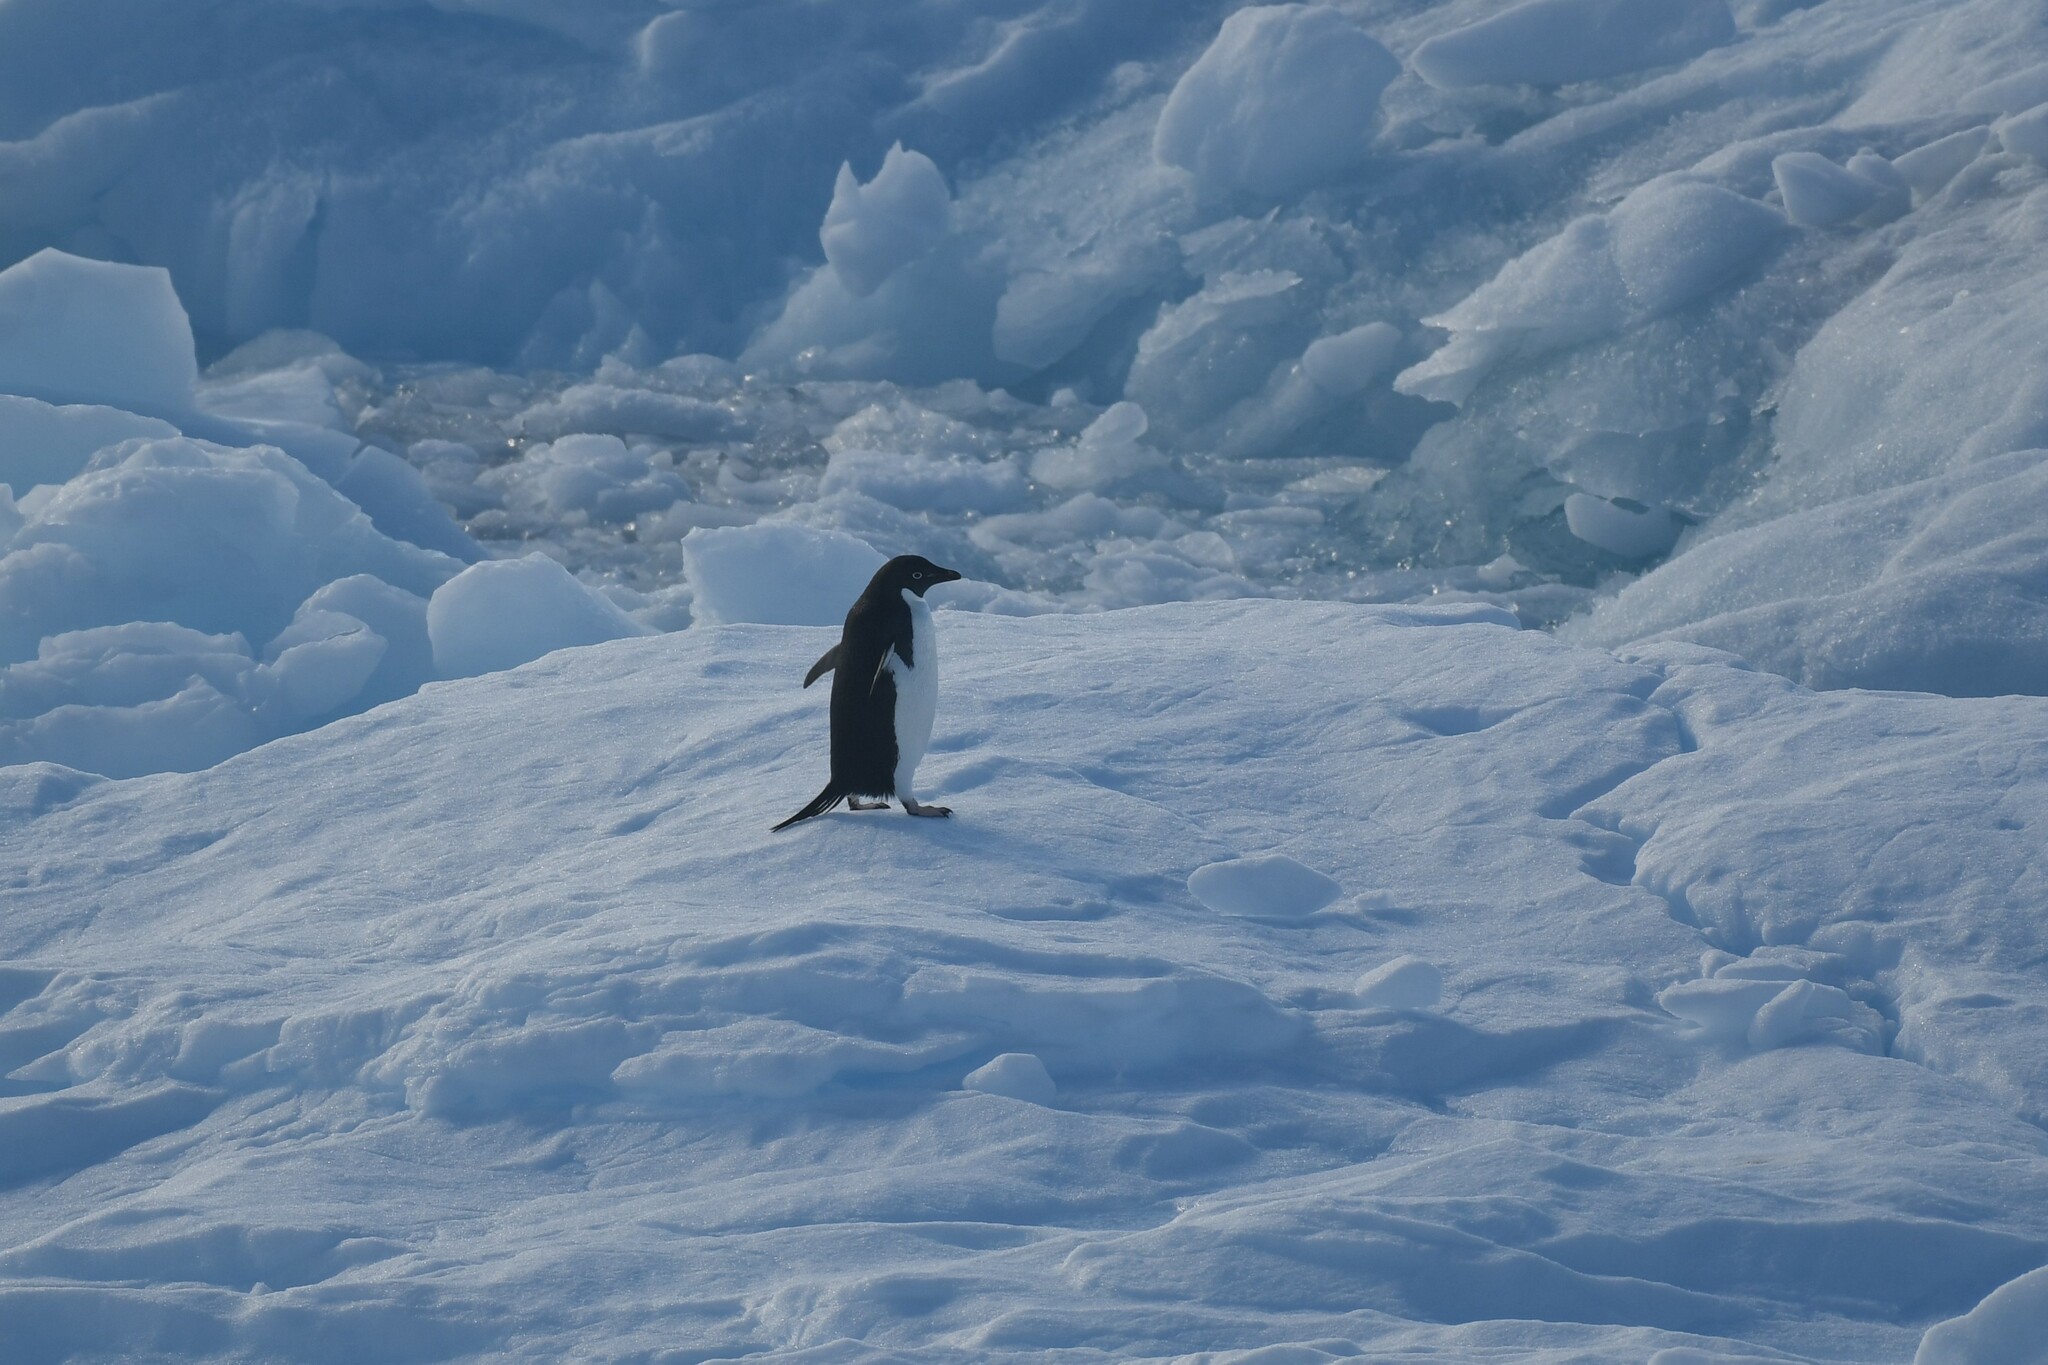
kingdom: Animalia
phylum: Chordata
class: Aves
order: Sphenisciformes
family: Spheniscidae
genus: Pygoscelis
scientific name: Pygoscelis adeliae
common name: Adelie penguin
